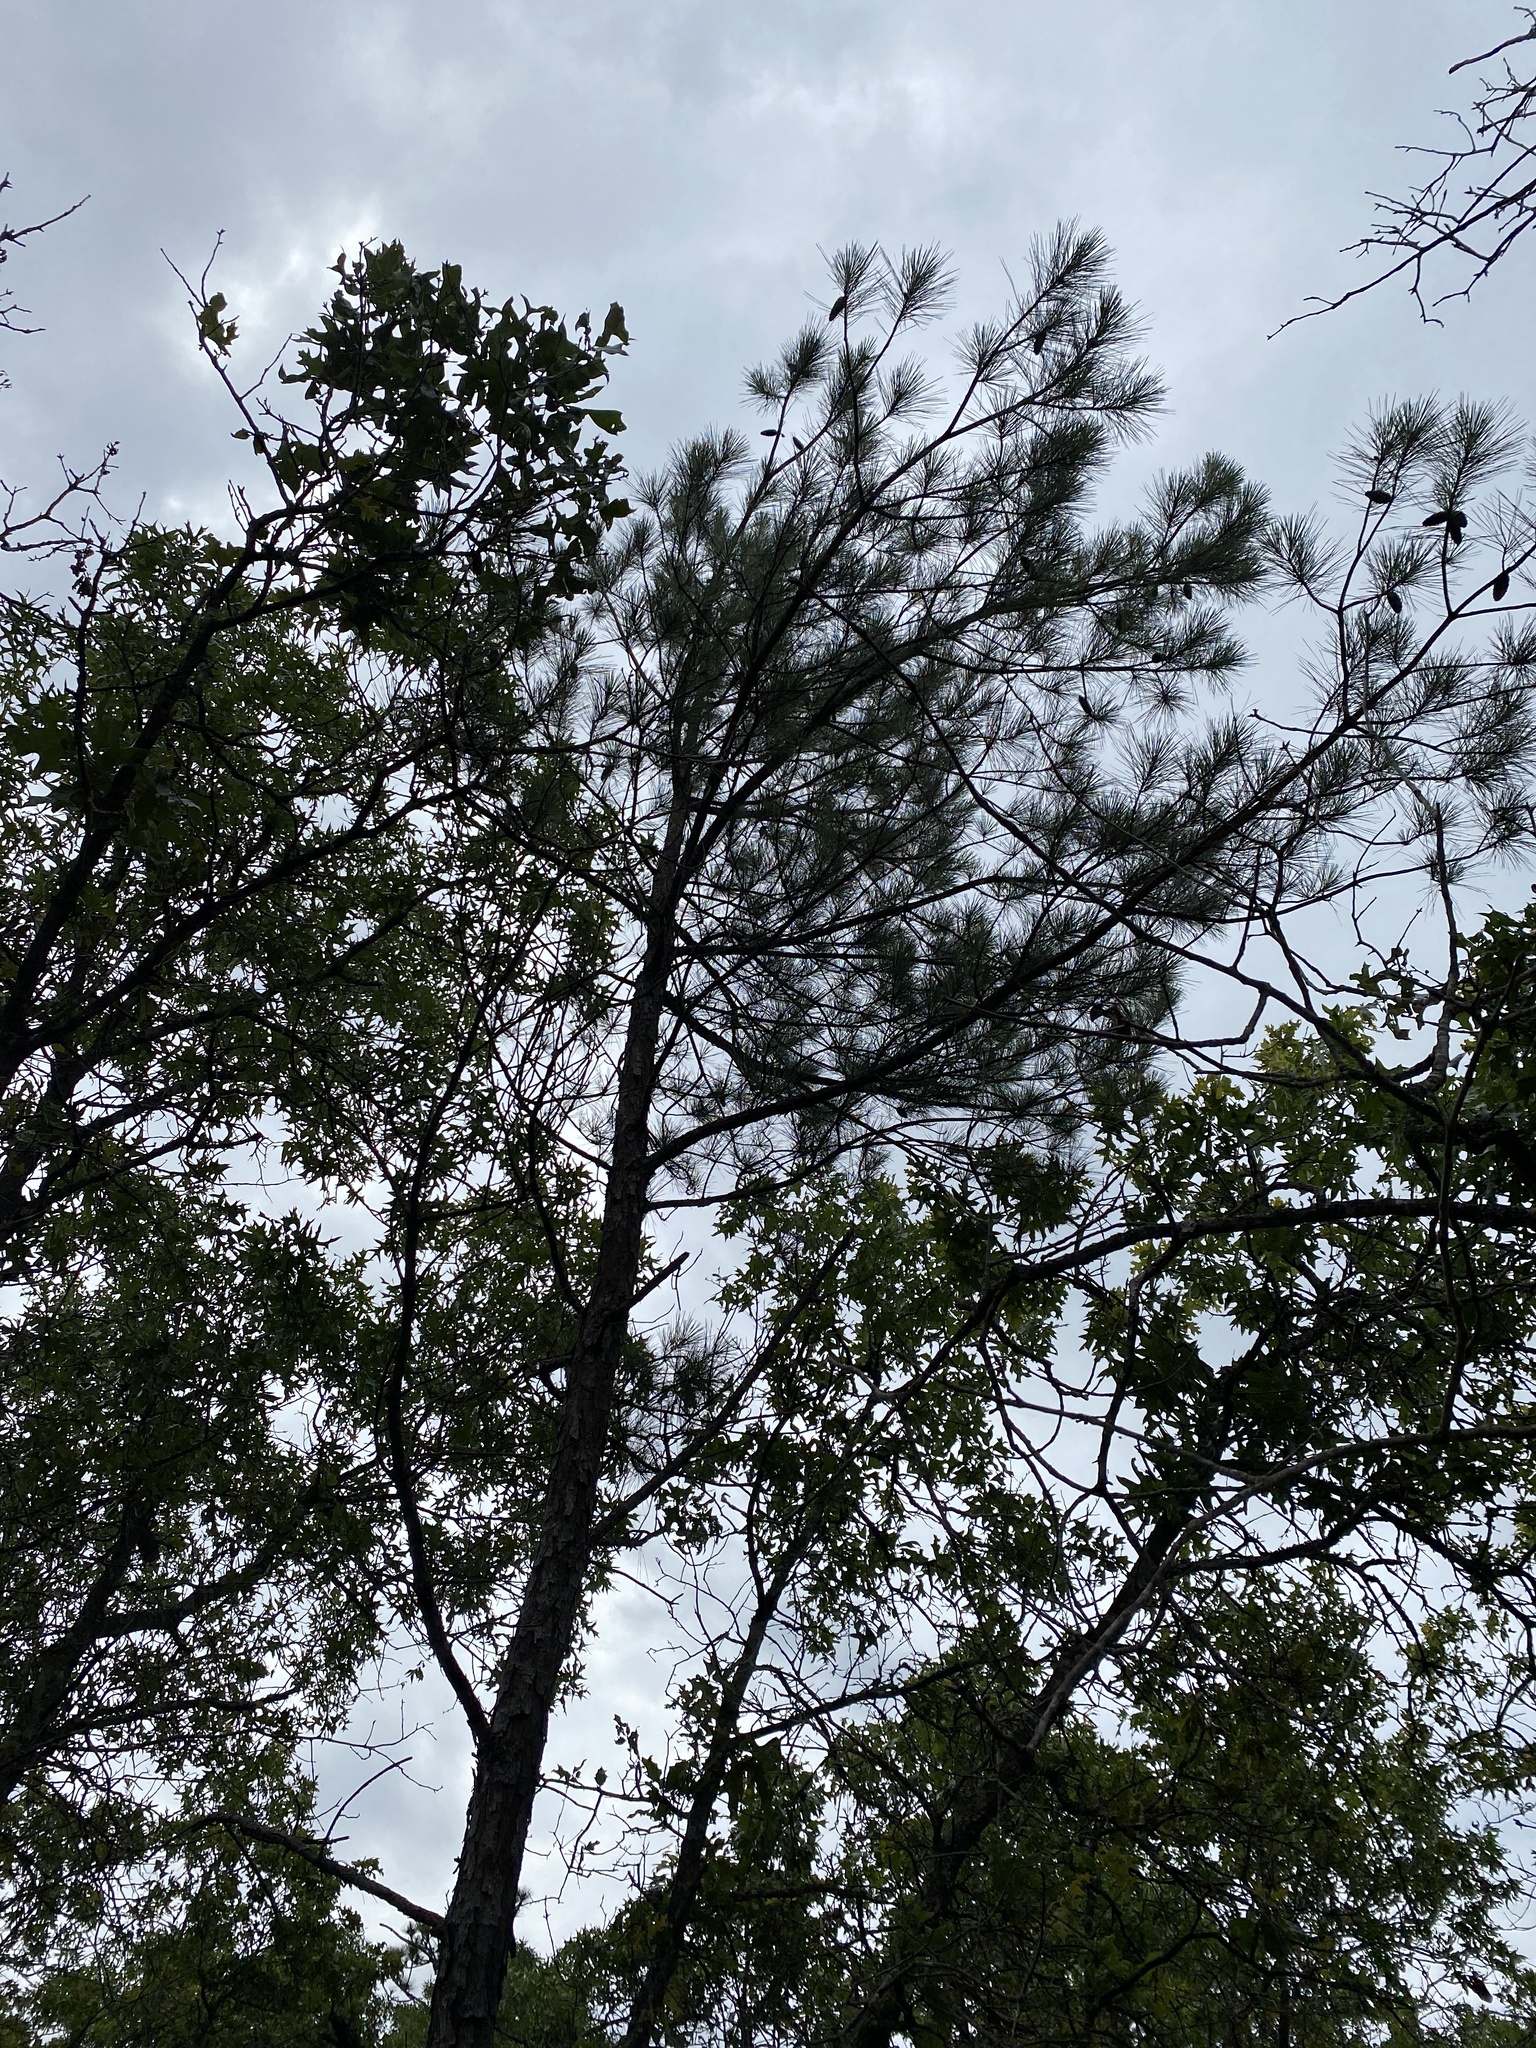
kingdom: Plantae
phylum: Tracheophyta
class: Pinopsida
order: Pinales
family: Pinaceae
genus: Pinus
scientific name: Pinus taeda
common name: Loblolly pine
